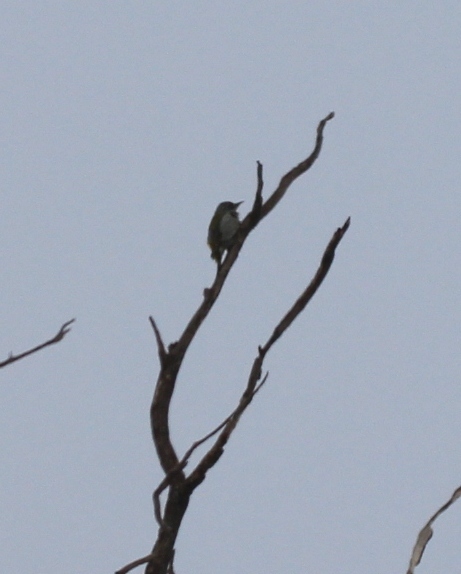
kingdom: Animalia
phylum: Chordata
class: Aves
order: Piciformes
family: Picidae
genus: Picus
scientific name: Picus canus
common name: Grey-headed woodpecker
